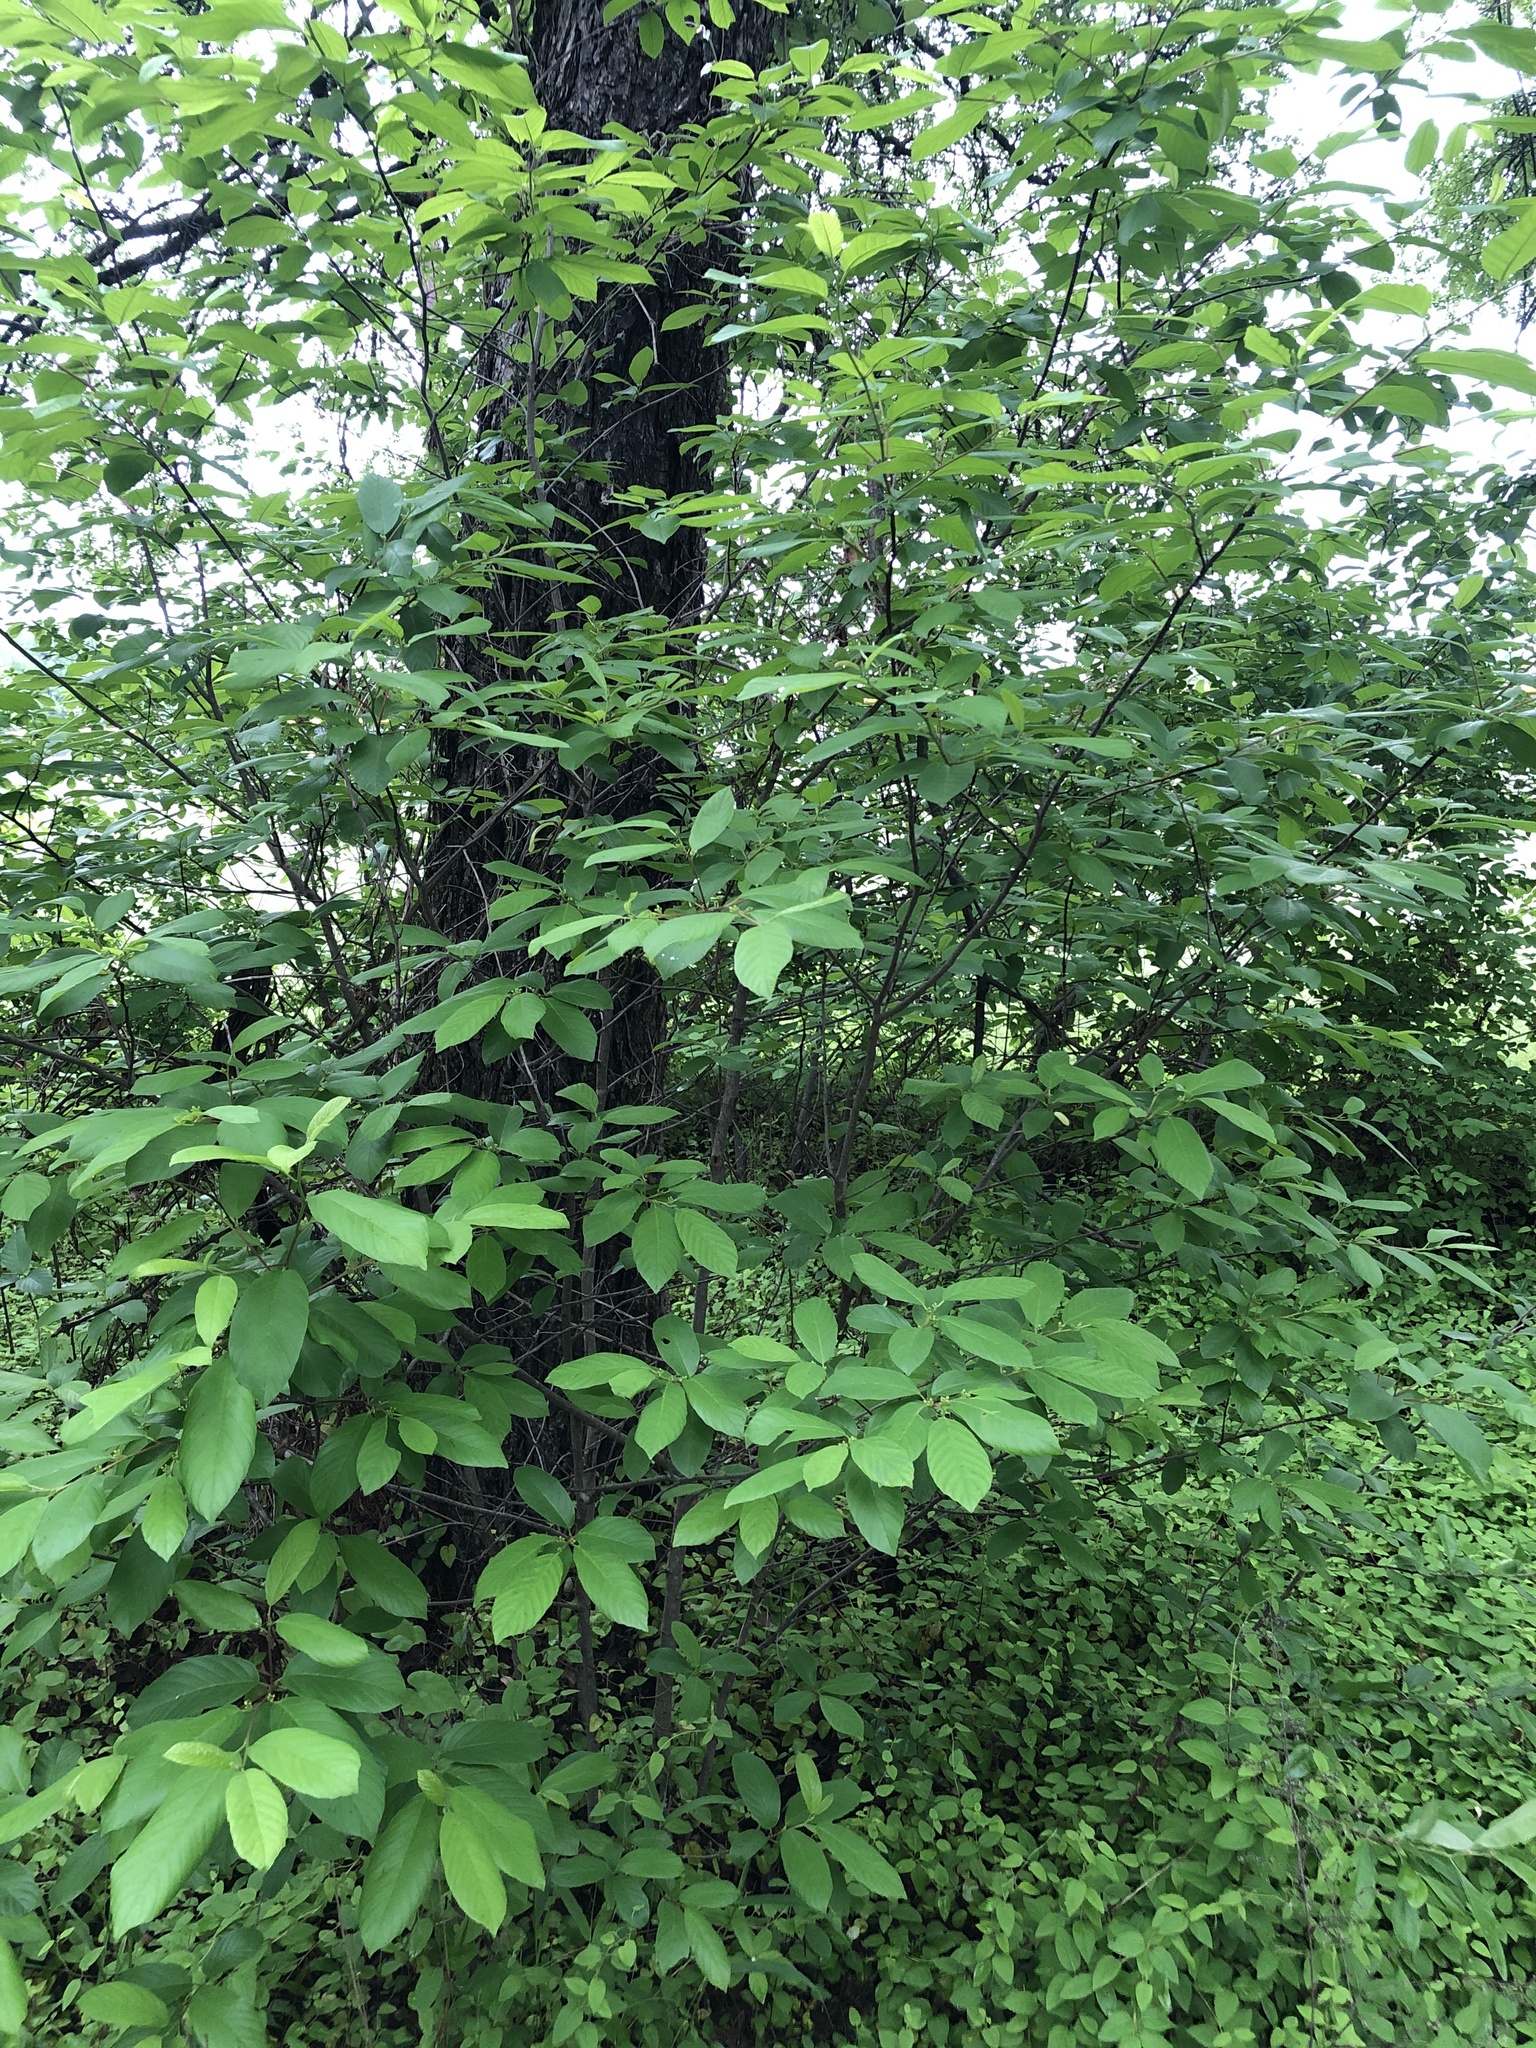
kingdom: Plantae
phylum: Tracheophyta
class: Magnoliopsida
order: Rosales
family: Rhamnaceae
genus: Frangula
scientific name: Frangula caroliniana
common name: Carolina buckthorn
